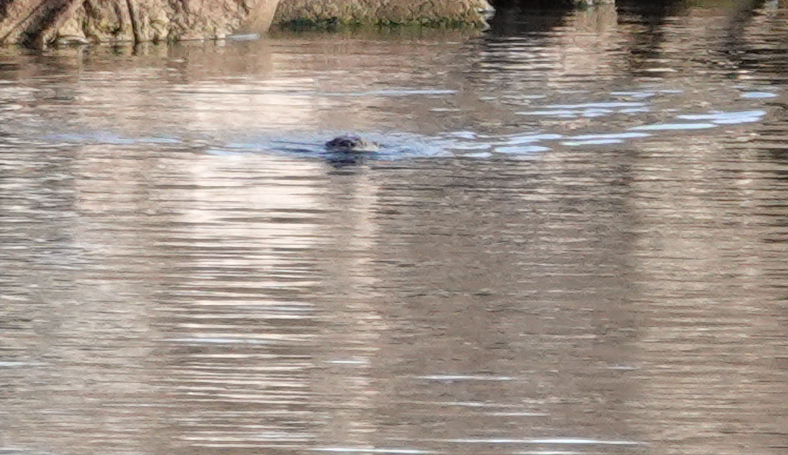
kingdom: Animalia
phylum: Chordata
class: Mammalia
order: Carnivora
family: Mustelidae
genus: Lontra
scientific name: Lontra canadensis
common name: North american river otter
